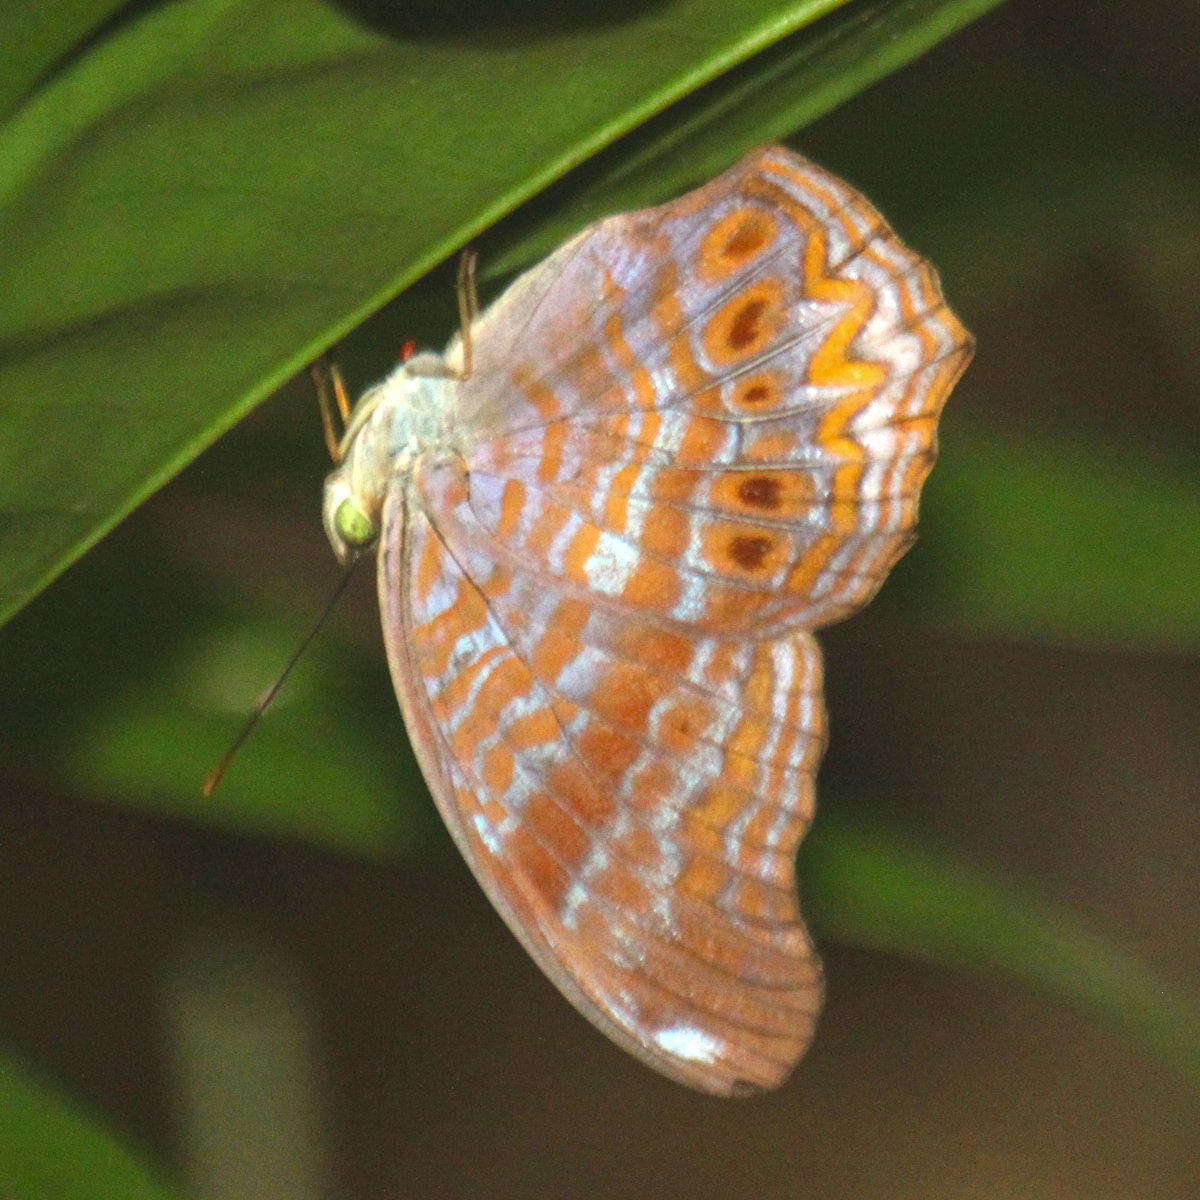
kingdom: Animalia
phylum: Arthropoda
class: Insecta
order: Lepidoptera
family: Nymphalidae
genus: Terinos
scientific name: Terinos terpander
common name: Royal assyrian
